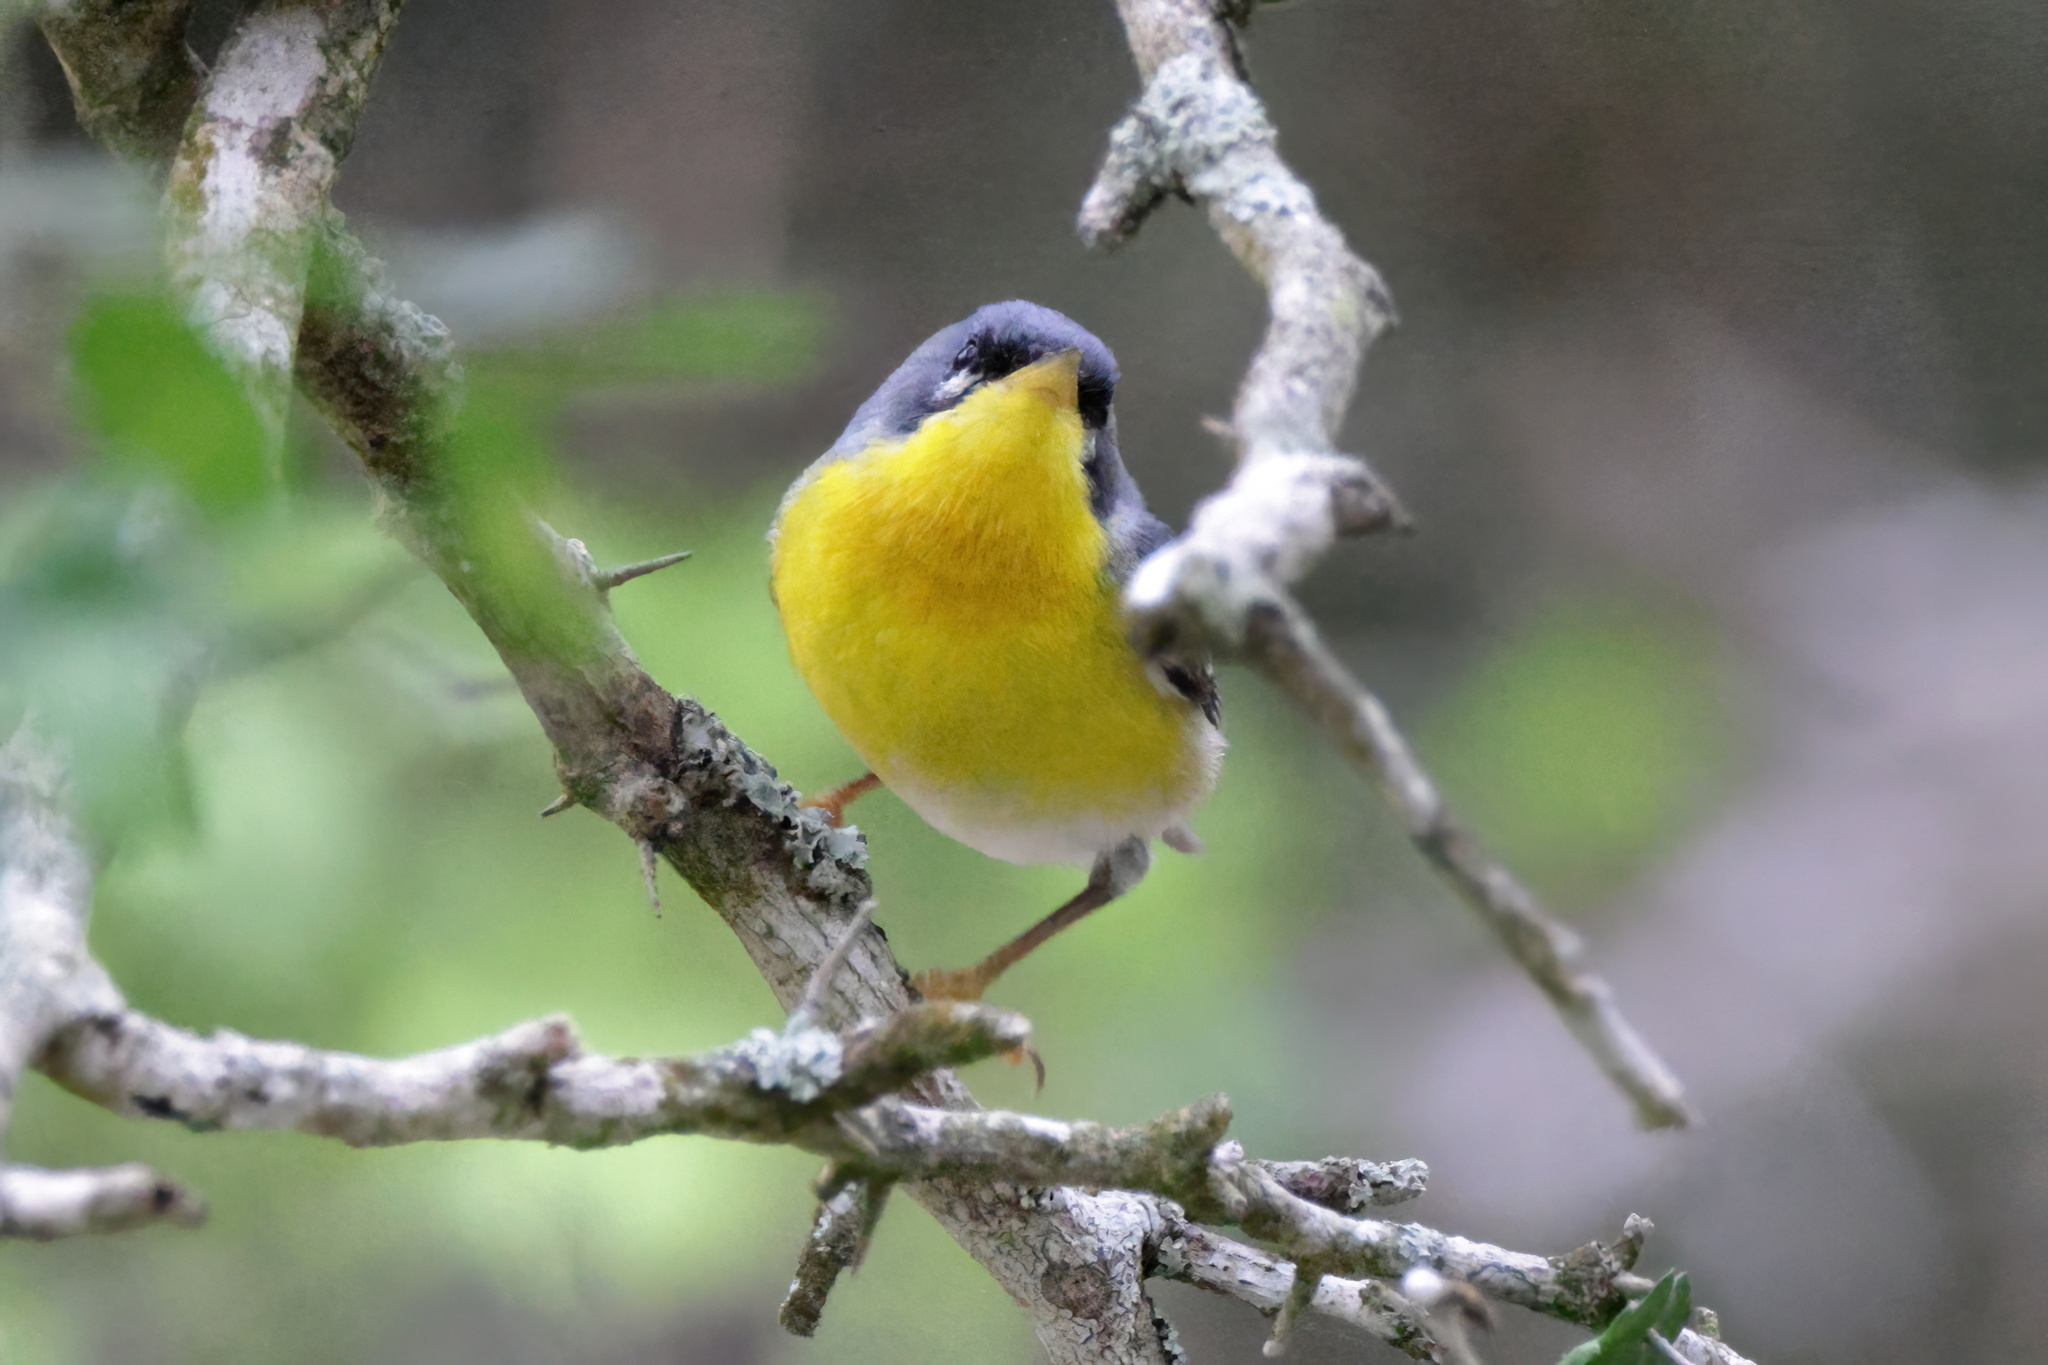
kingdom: Animalia
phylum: Chordata
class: Aves
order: Passeriformes
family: Parulidae
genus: Setophaga
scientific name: Setophaga pitiayumi
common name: Tropical parula
